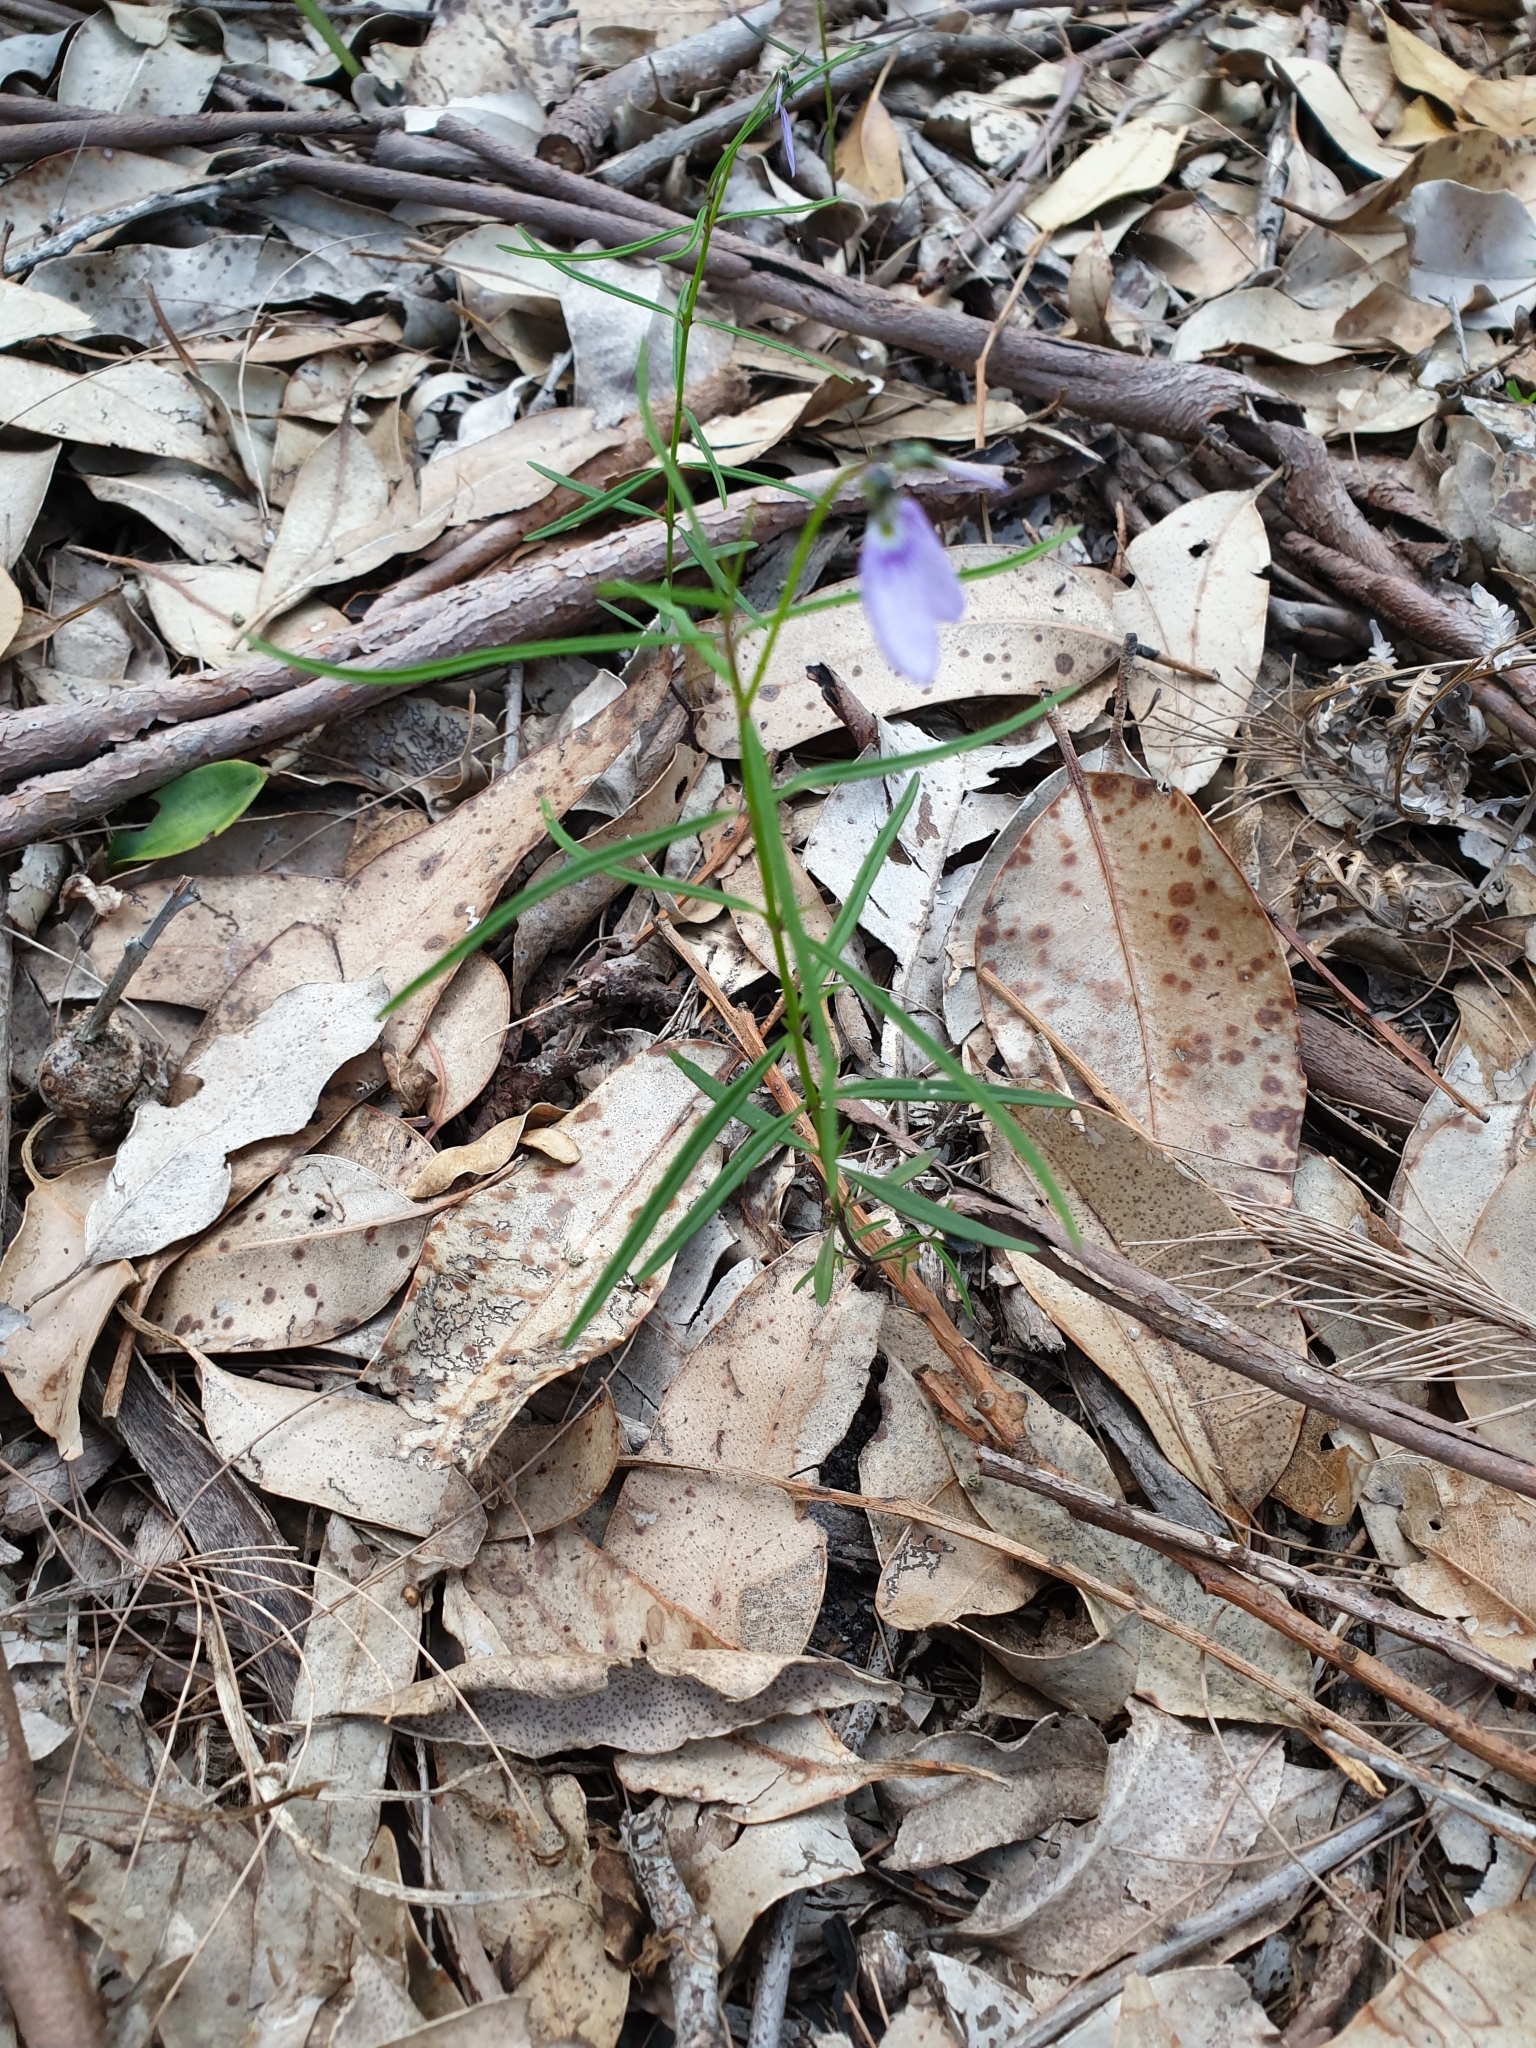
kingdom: Plantae
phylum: Tracheophyta
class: Magnoliopsida
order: Malpighiales
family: Violaceae
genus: Pigea
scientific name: Pigea monopetala
